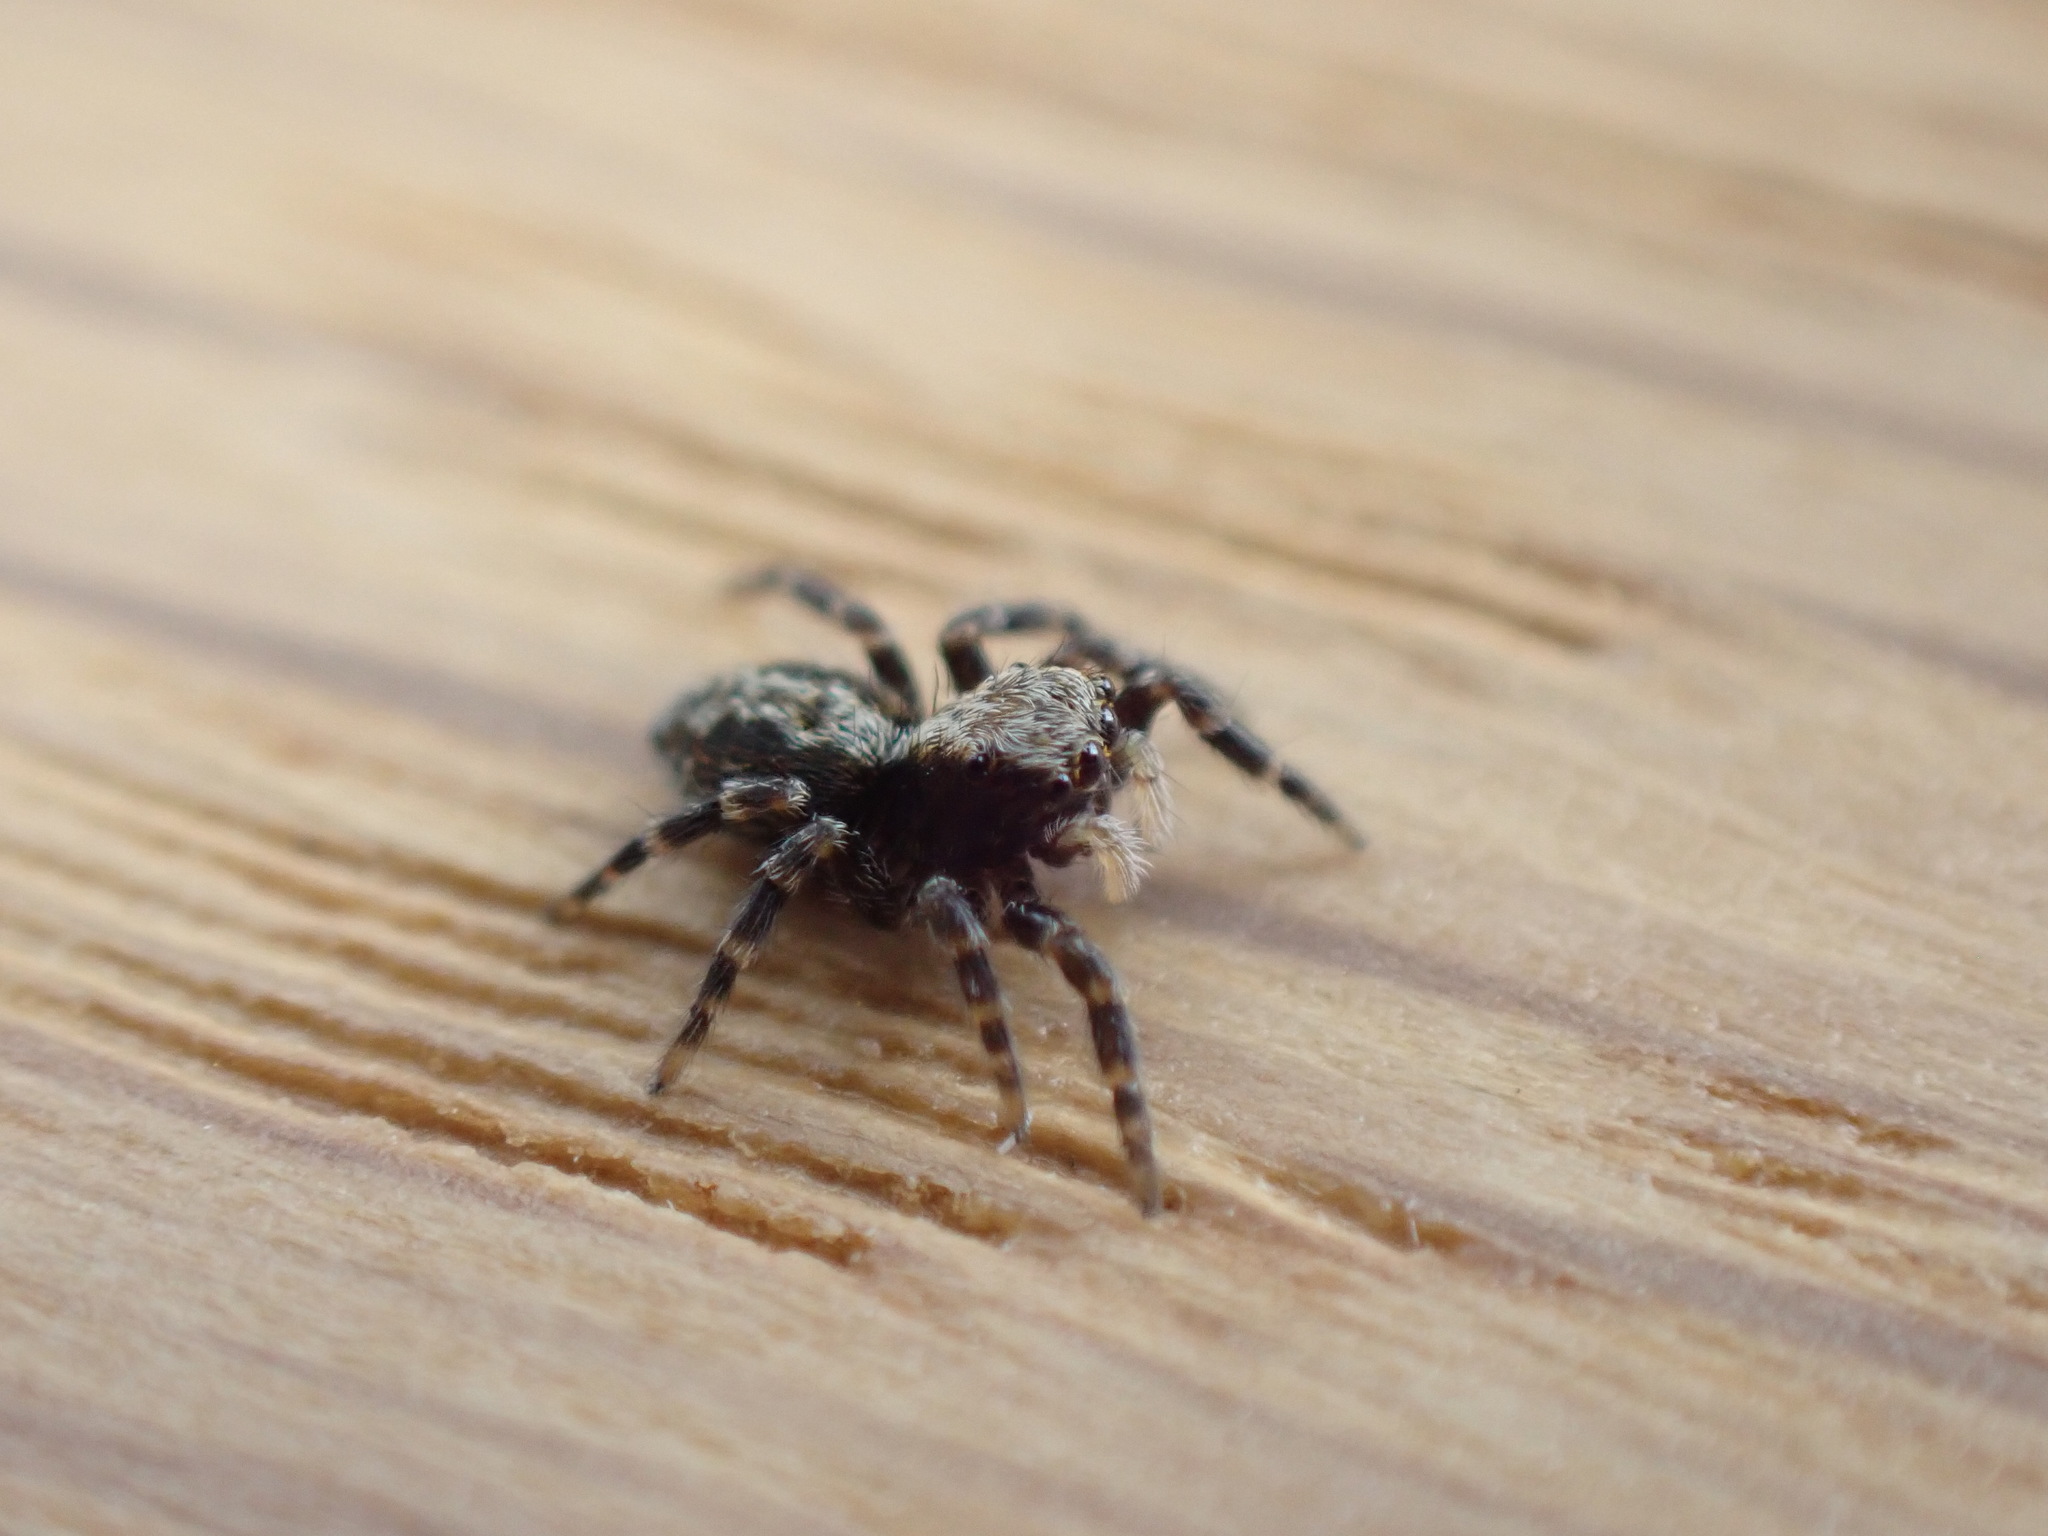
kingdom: Animalia
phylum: Arthropoda
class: Arachnida
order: Araneae
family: Salticidae
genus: Pseudeuophrys
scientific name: Pseudeuophrys lanigera
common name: Jumping spider
